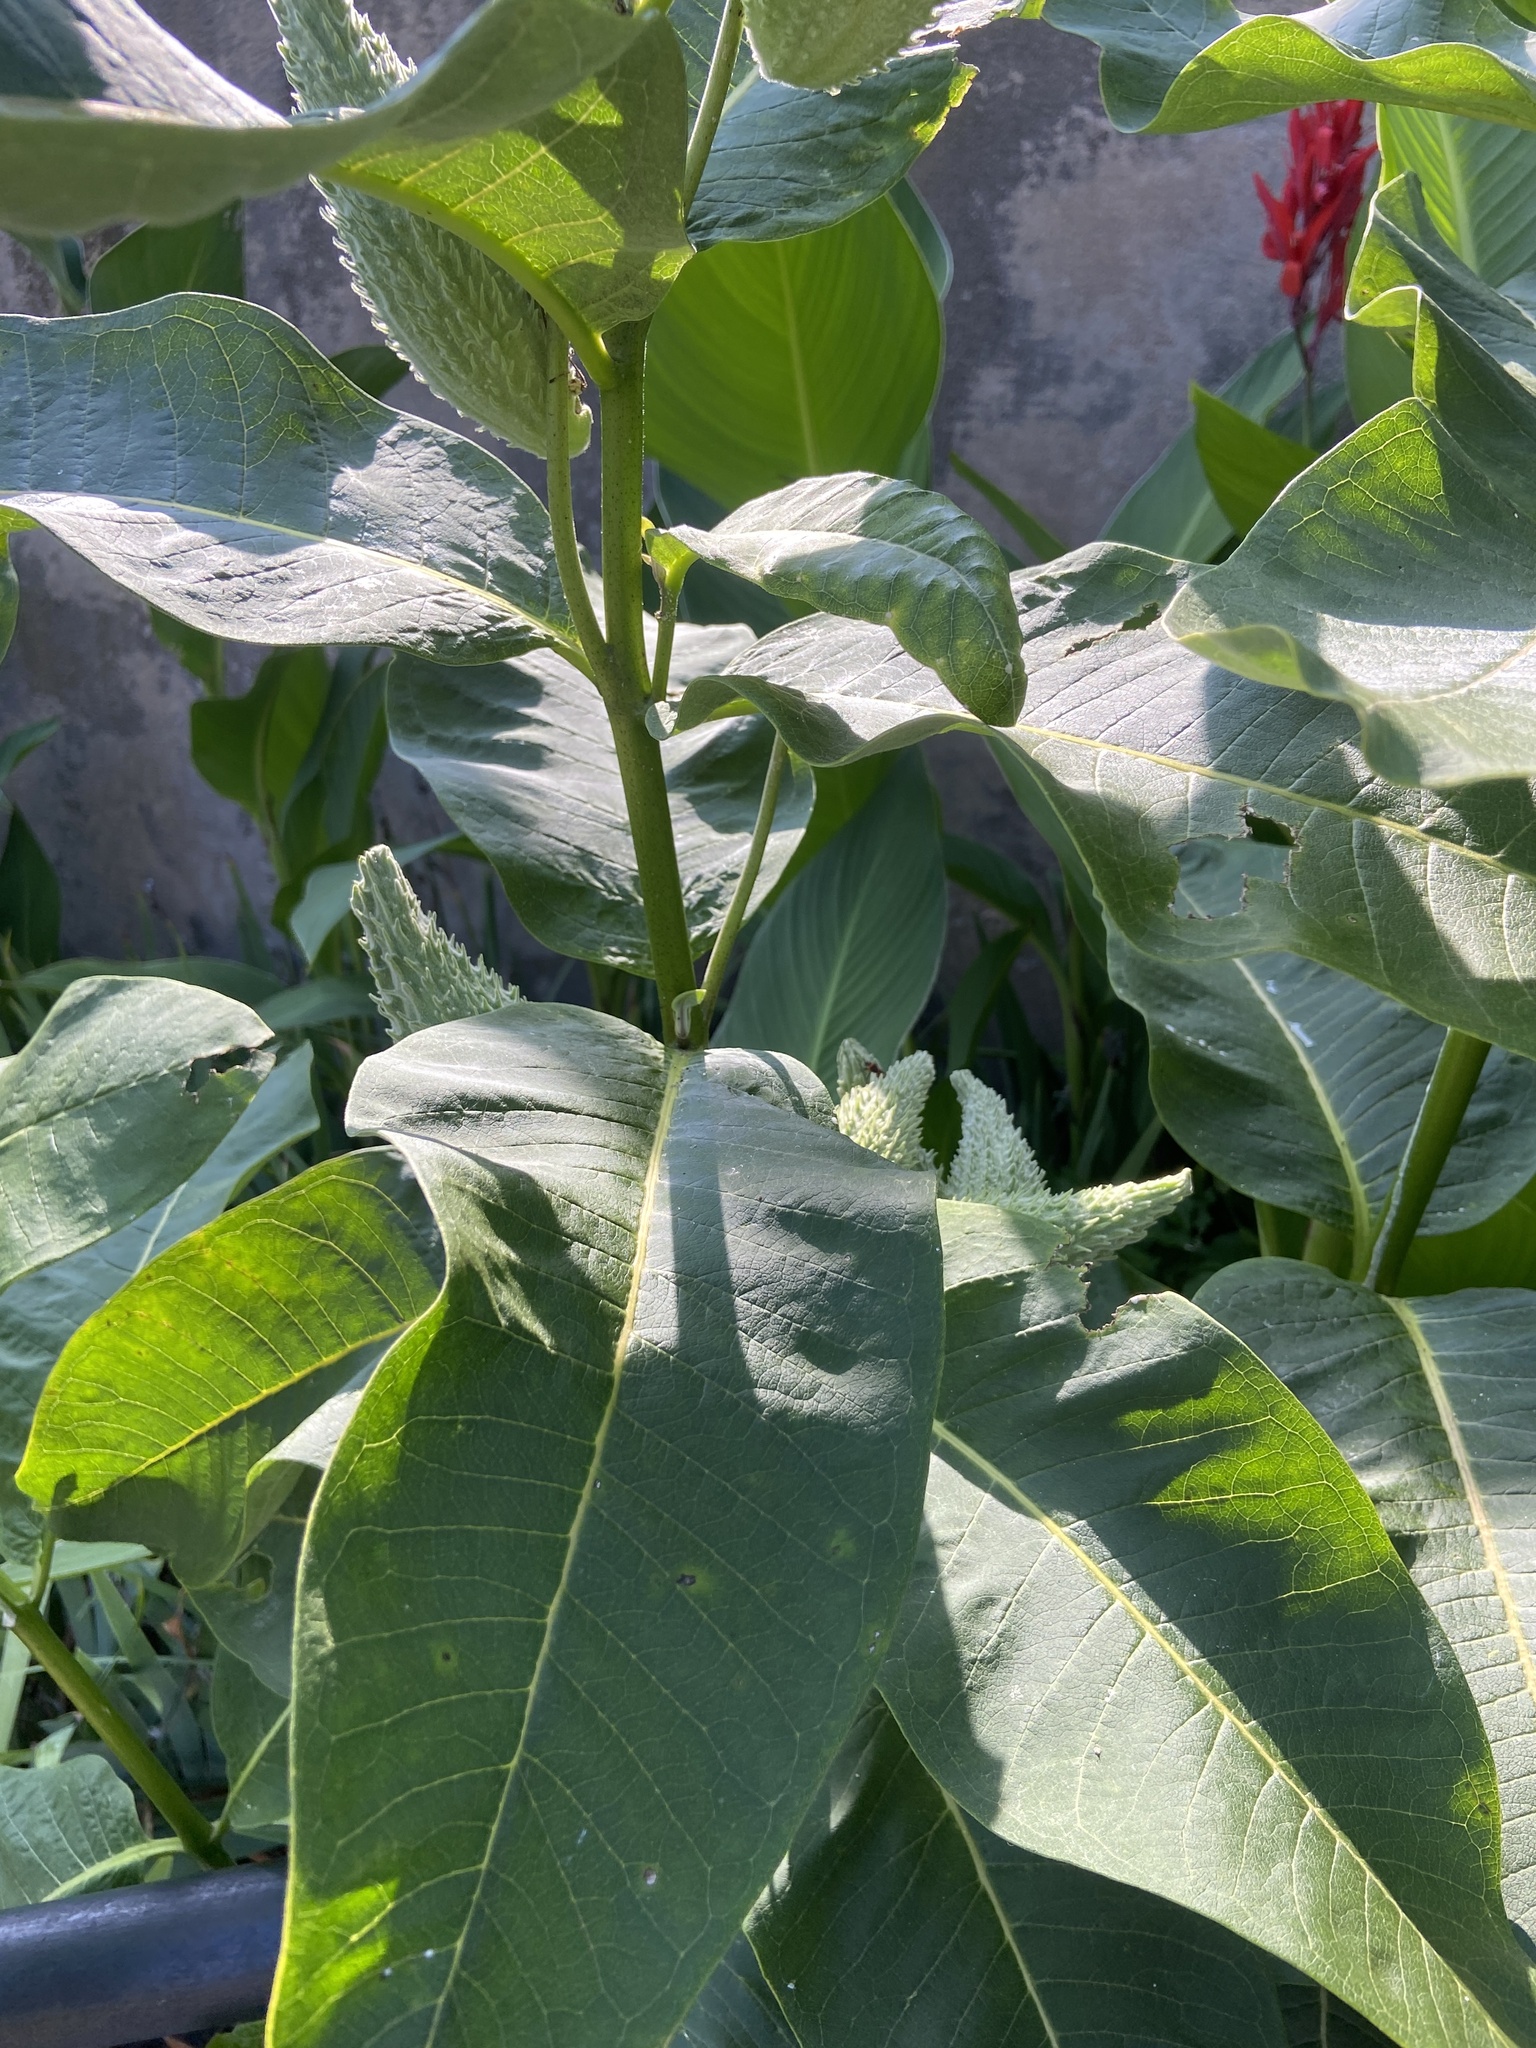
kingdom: Plantae
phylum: Tracheophyta
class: Magnoliopsida
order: Gentianales
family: Apocynaceae
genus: Asclepias
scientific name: Asclepias syriaca
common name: Common milkweed
